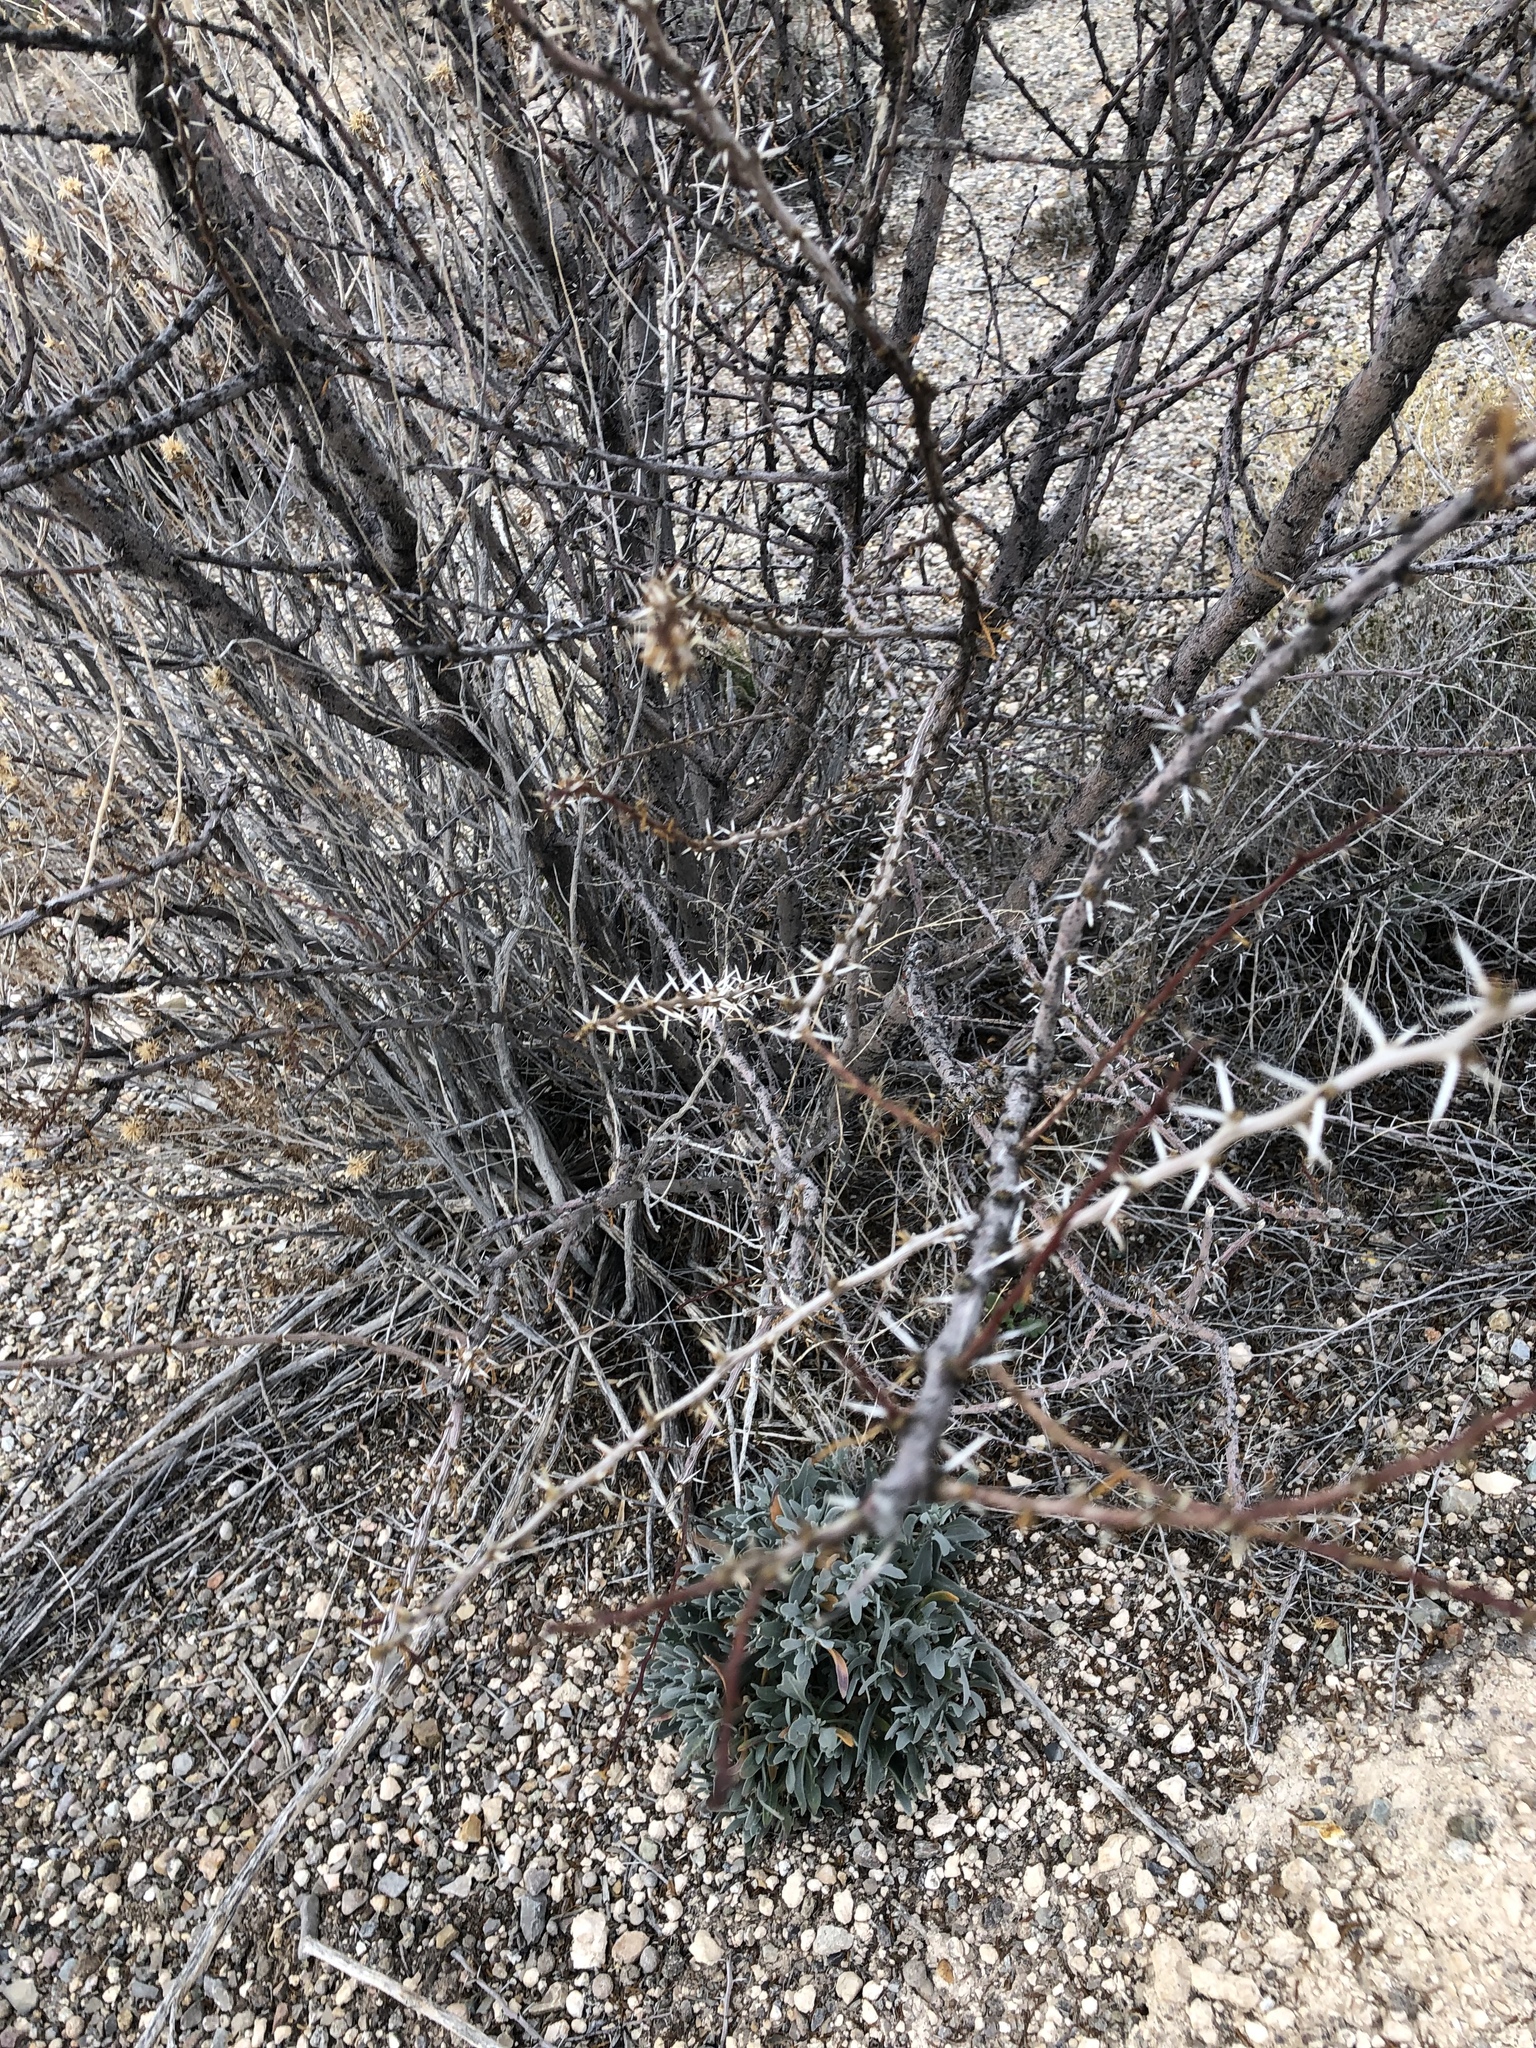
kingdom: Plantae
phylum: Tracheophyta
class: Magnoliopsida
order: Fabales
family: Fabaceae
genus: Vachellia
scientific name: Vachellia constricta
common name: Mescat acacia
